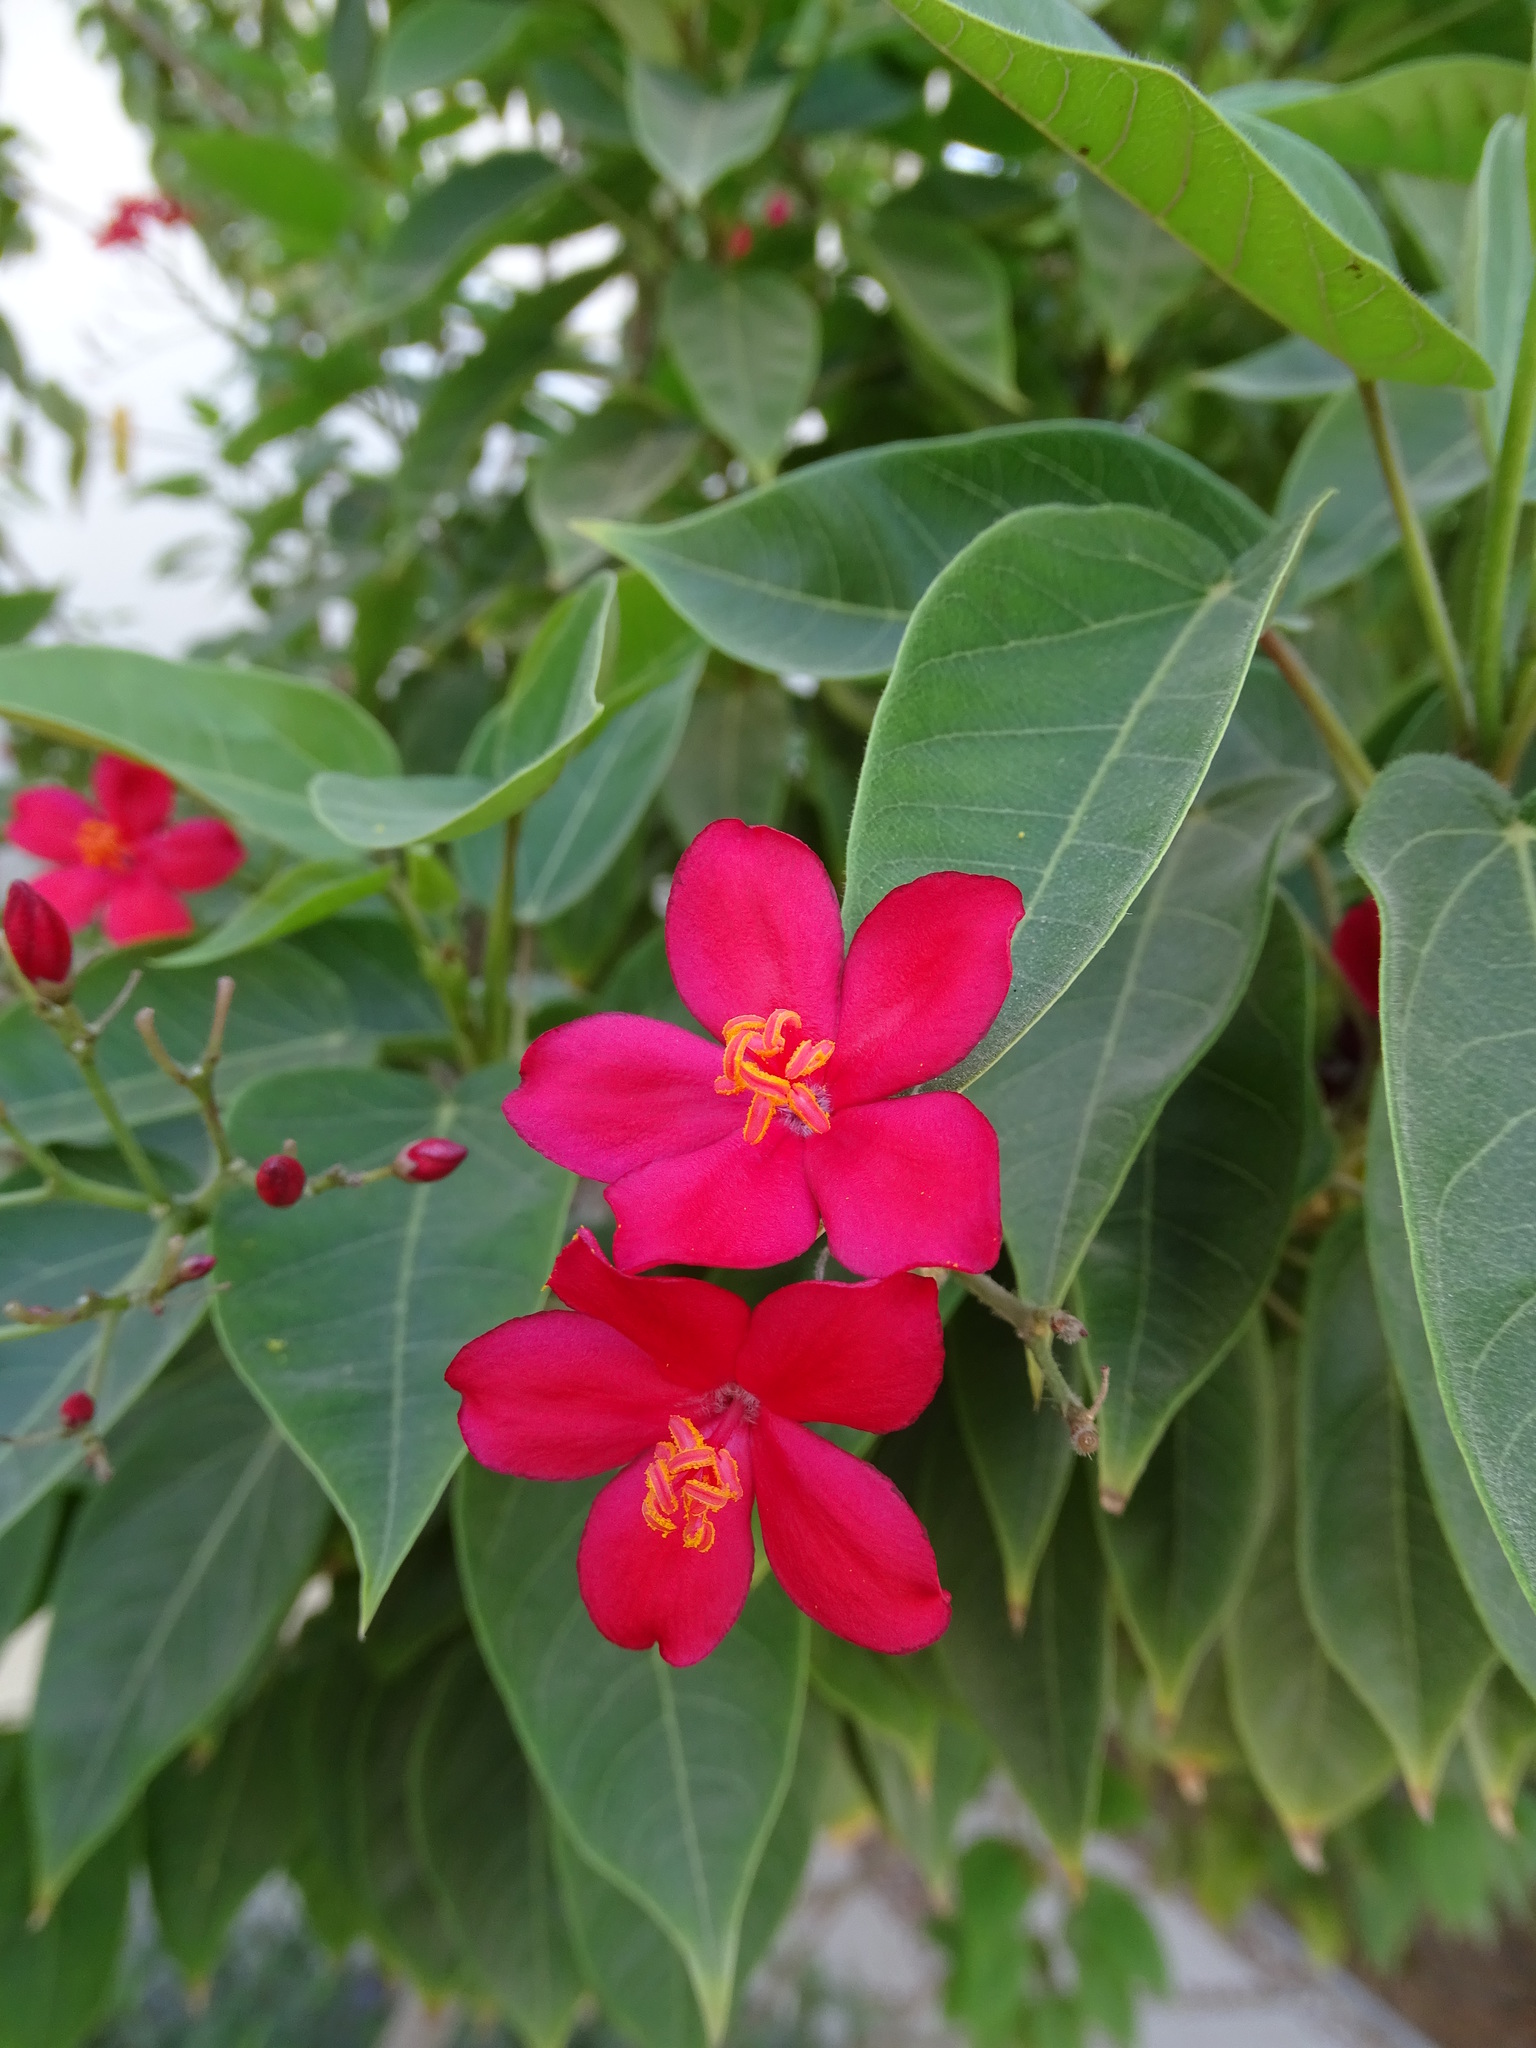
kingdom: Plantae
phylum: Tracheophyta
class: Magnoliopsida
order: Malpighiales
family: Euphorbiaceae
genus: Jatropha
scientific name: Jatropha integerrima
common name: Peregrina
